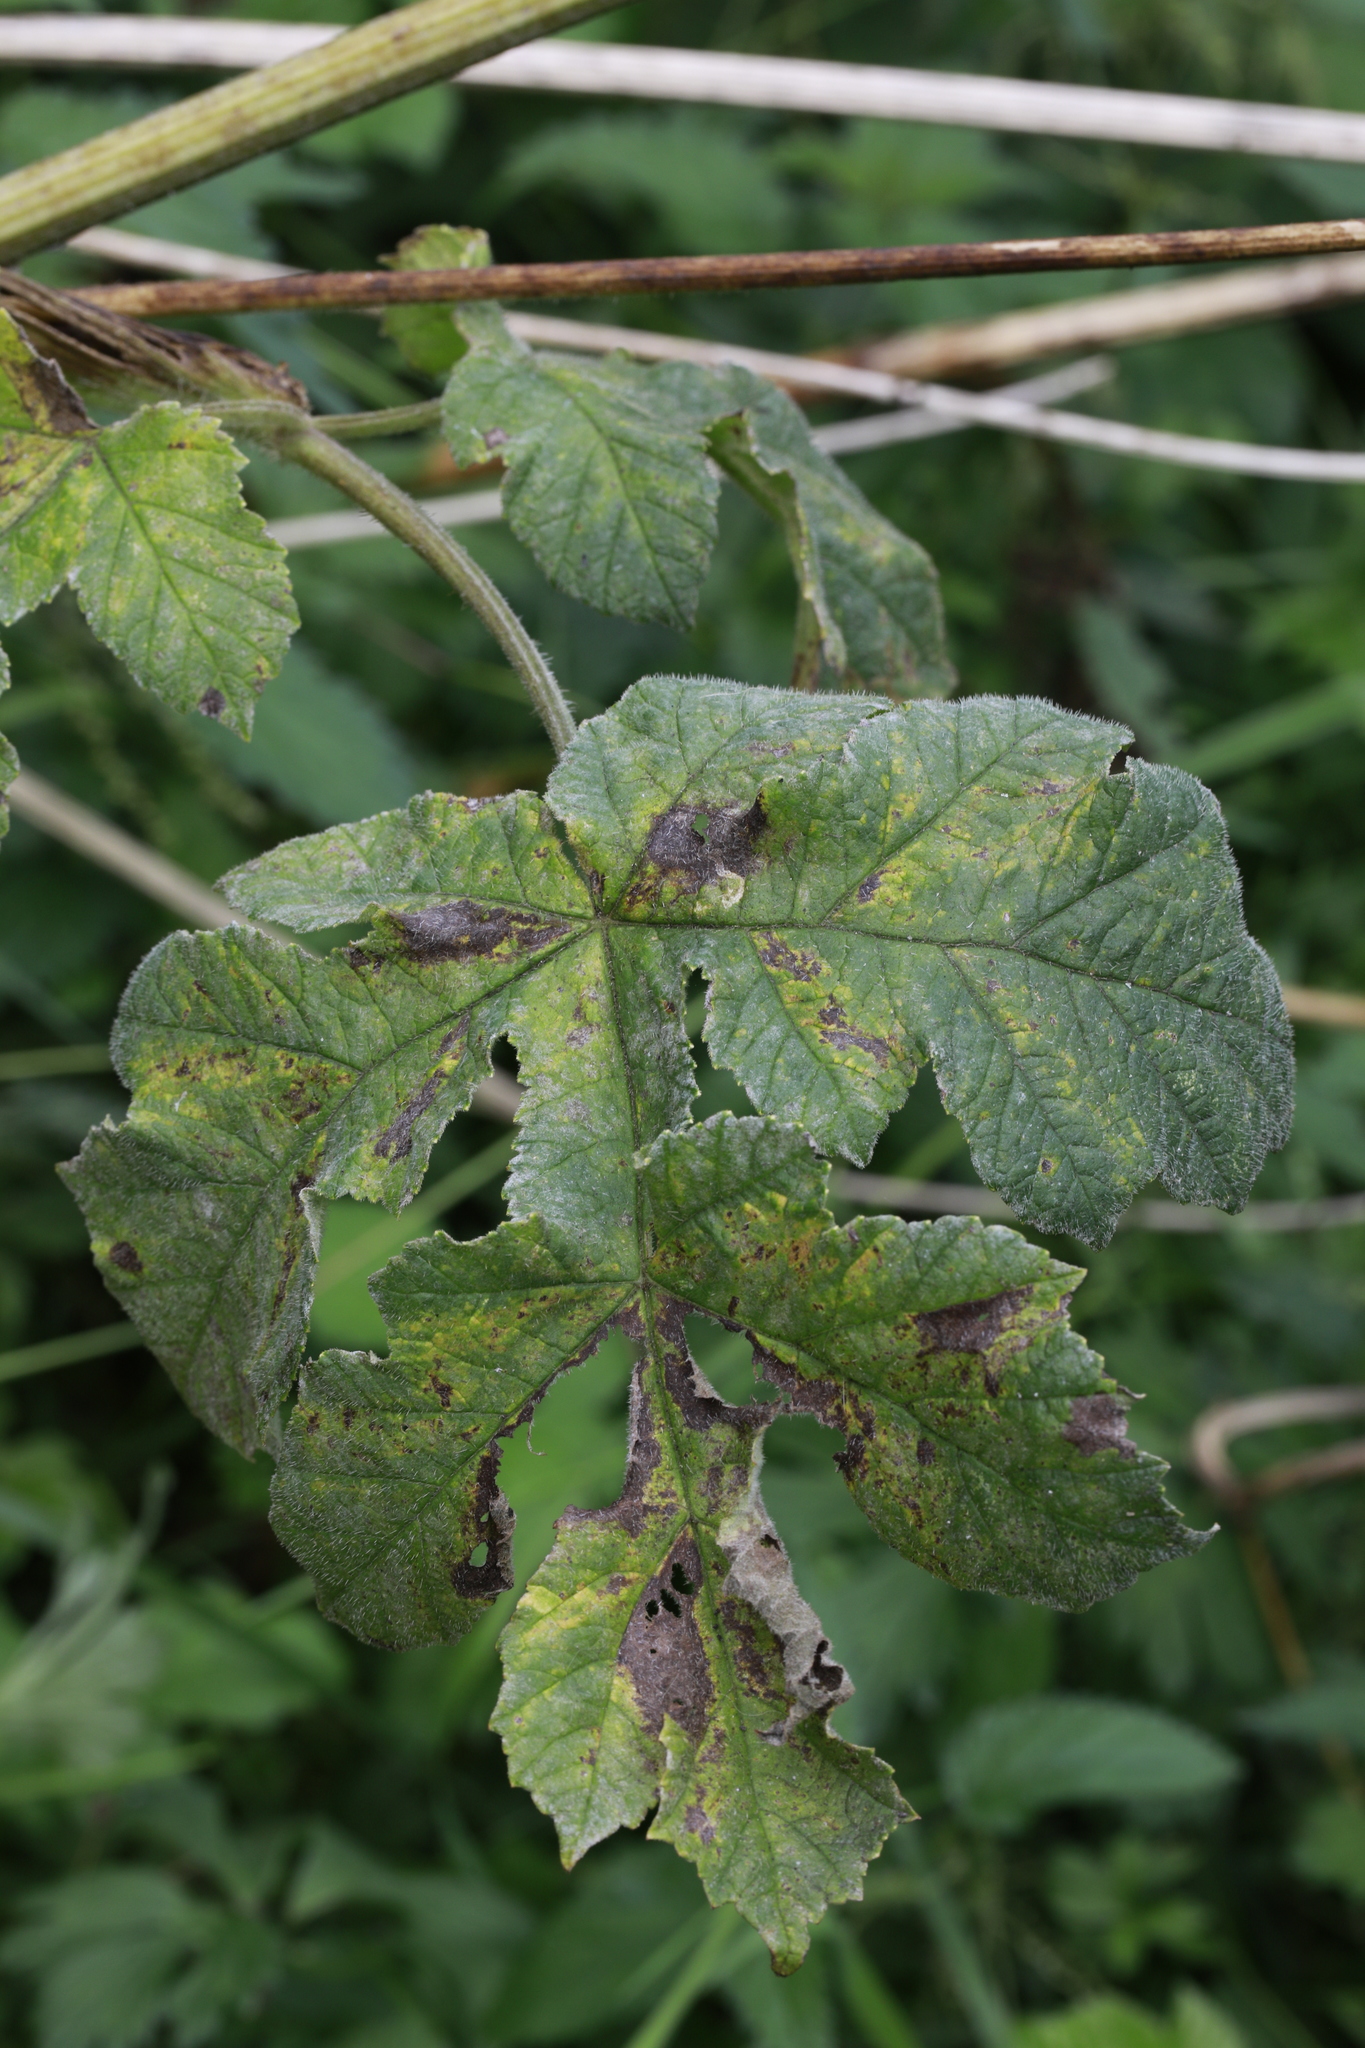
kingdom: Plantae
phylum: Tracheophyta
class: Magnoliopsida
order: Apiales
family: Apiaceae
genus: Heracleum
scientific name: Heracleum sphondylium
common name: Hogweed
